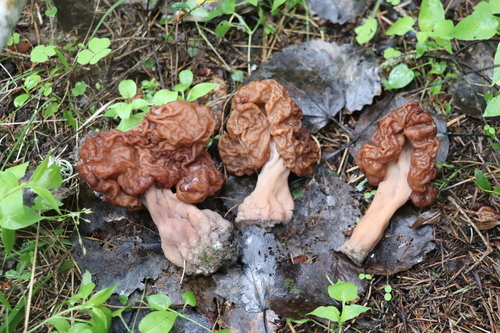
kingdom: Fungi
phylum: Ascomycota
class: Pezizomycetes
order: Pezizales
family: Discinaceae
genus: Gyromitra
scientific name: Gyromitra esculenta
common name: False morel
